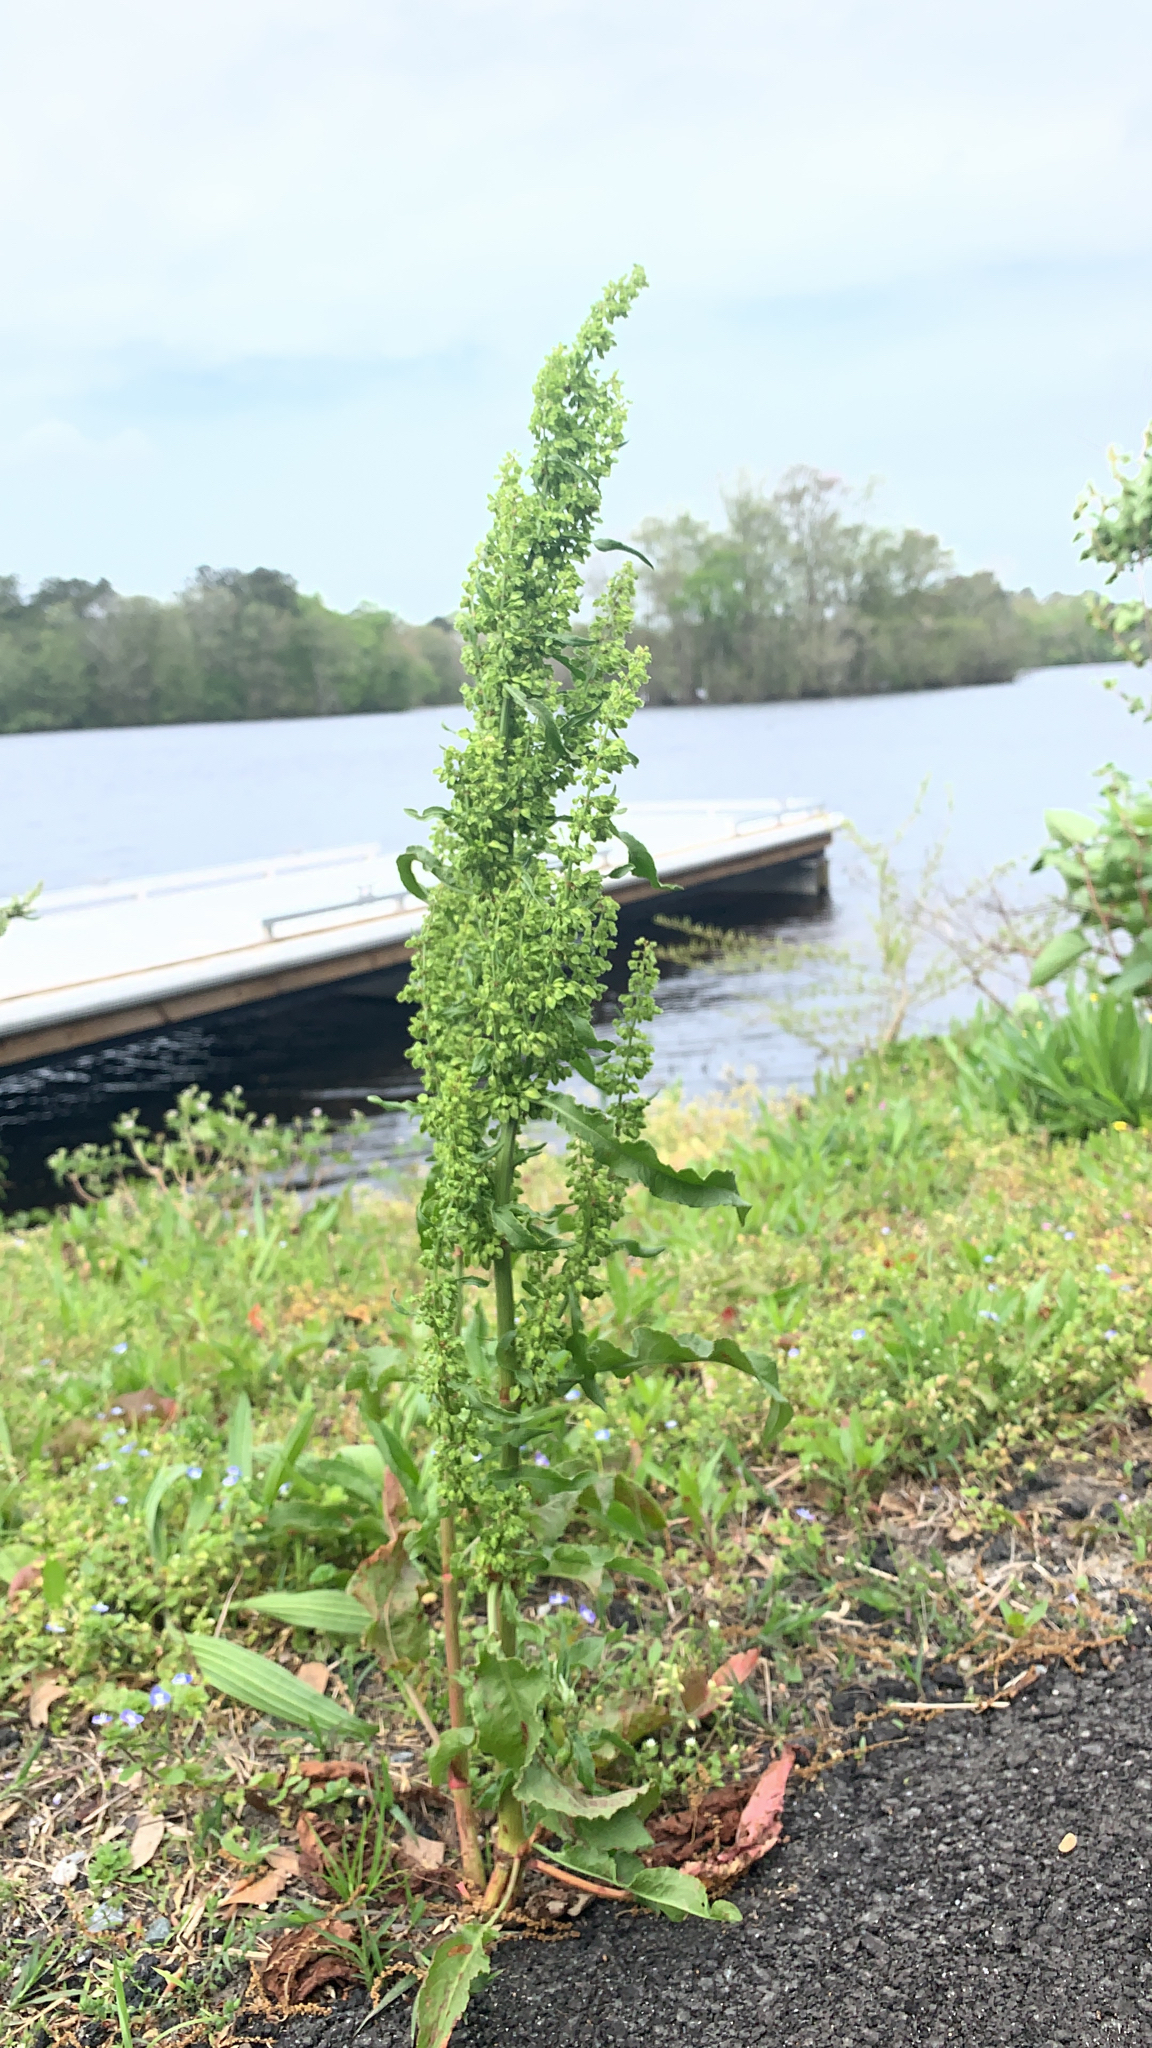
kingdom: Plantae
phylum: Tracheophyta
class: Magnoliopsida
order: Caryophyllales
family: Polygonaceae
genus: Rumex
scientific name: Rumex crispus
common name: Curled dock
